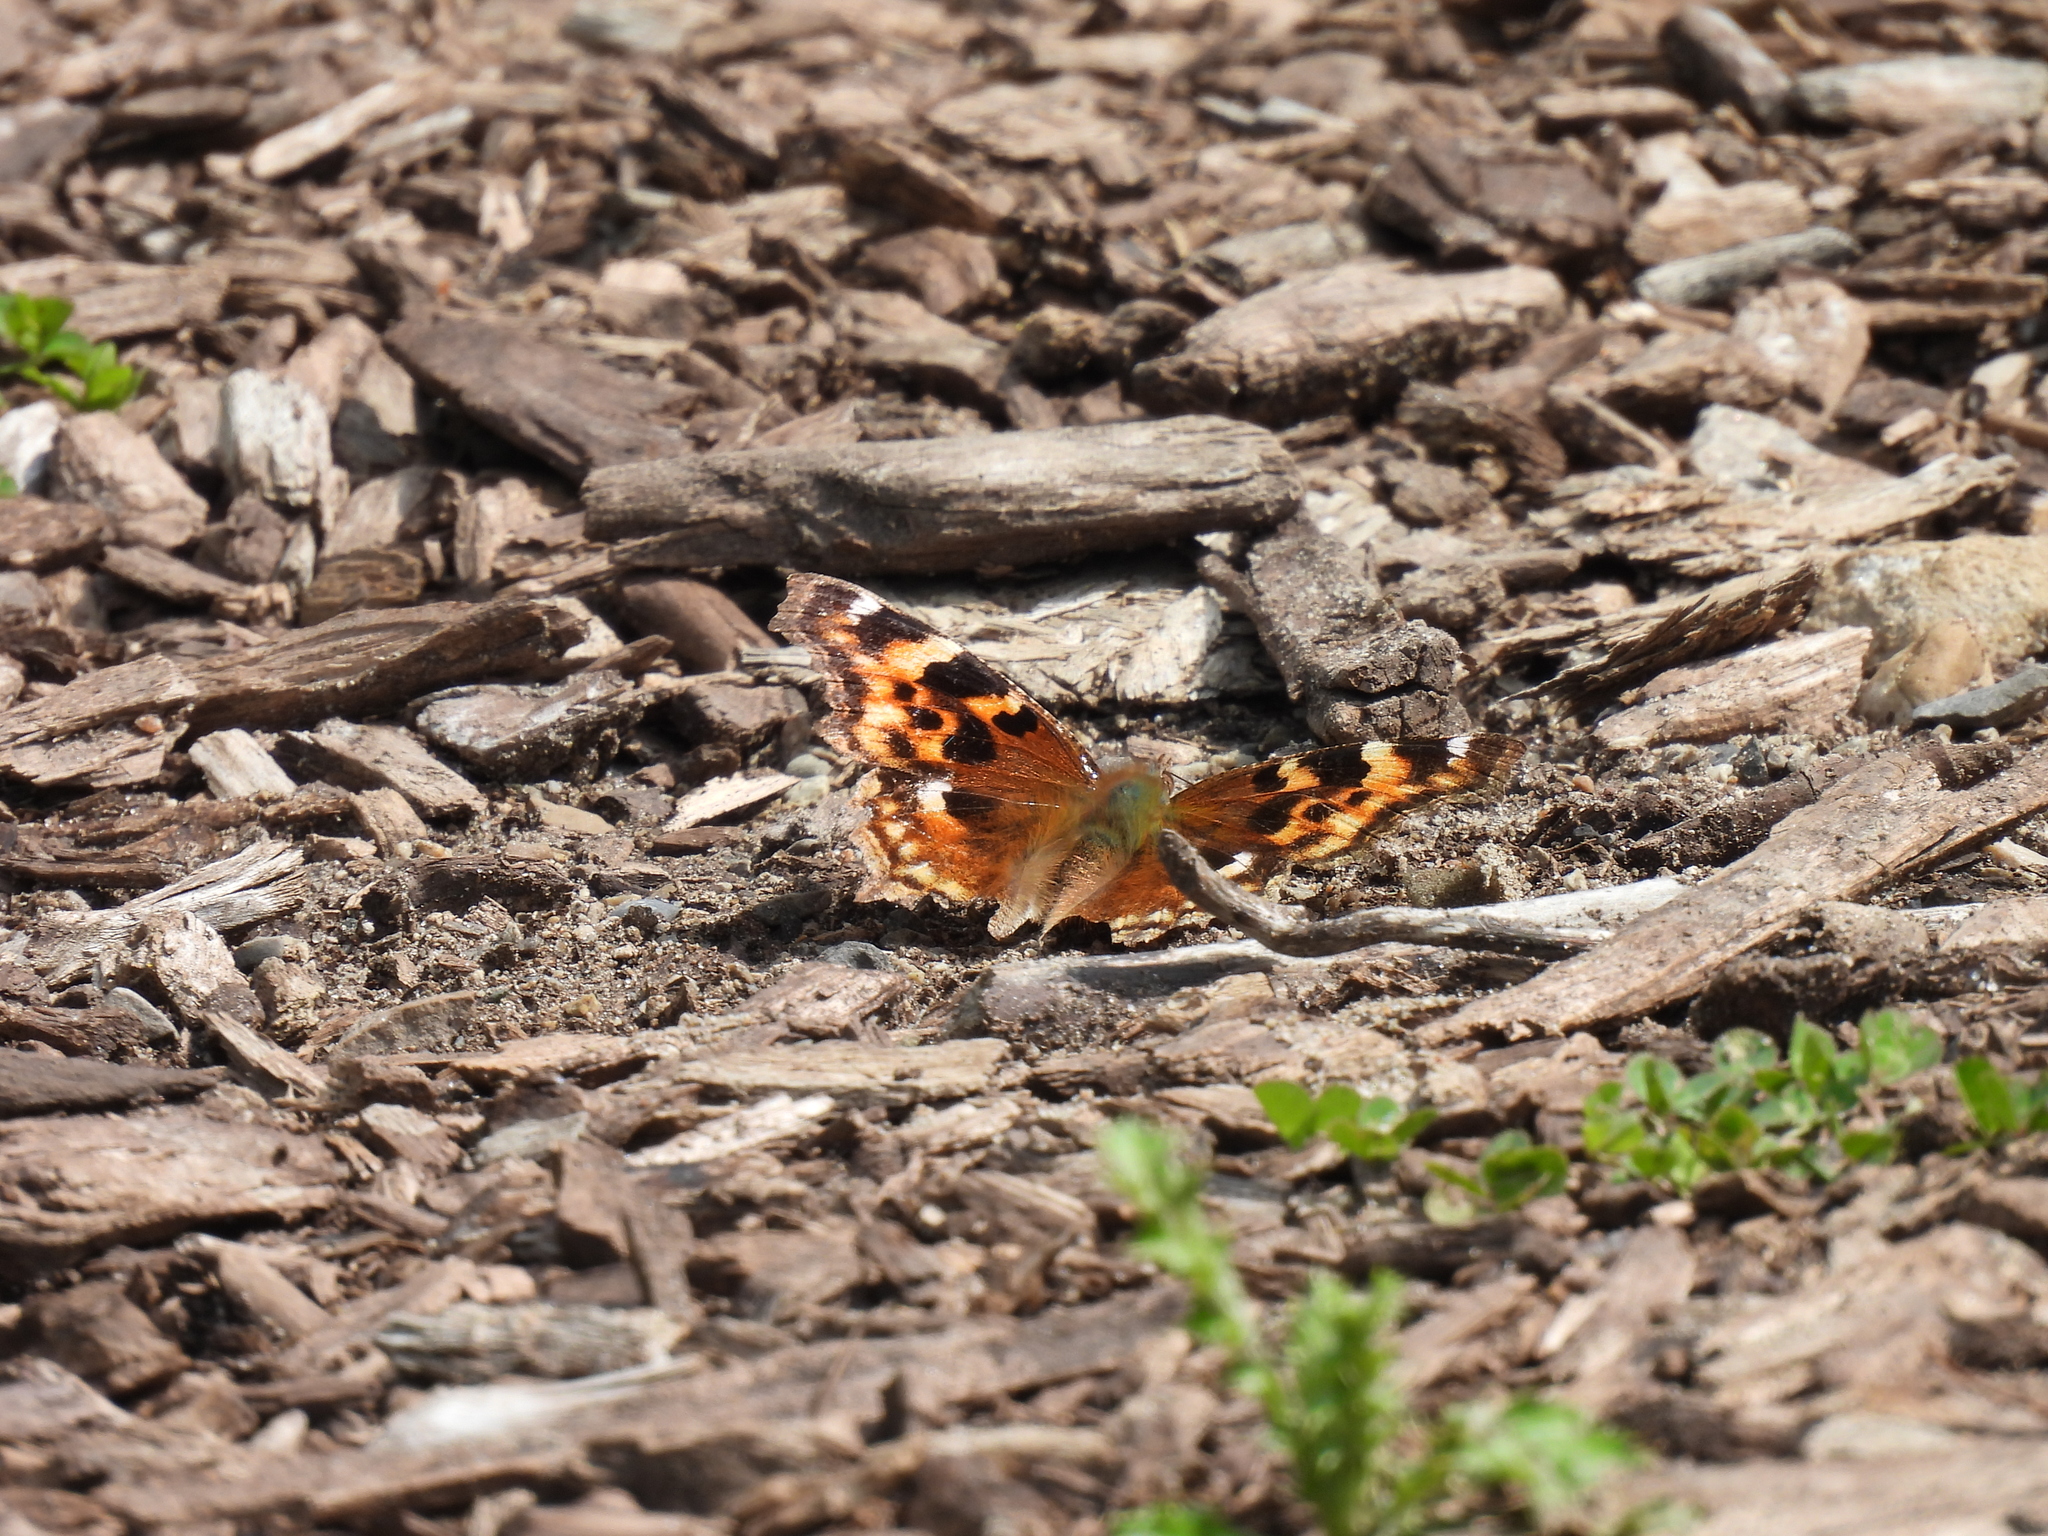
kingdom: Animalia
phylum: Arthropoda
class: Insecta
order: Lepidoptera
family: Nymphalidae
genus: Polygonia
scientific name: Polygonia vaualbum
